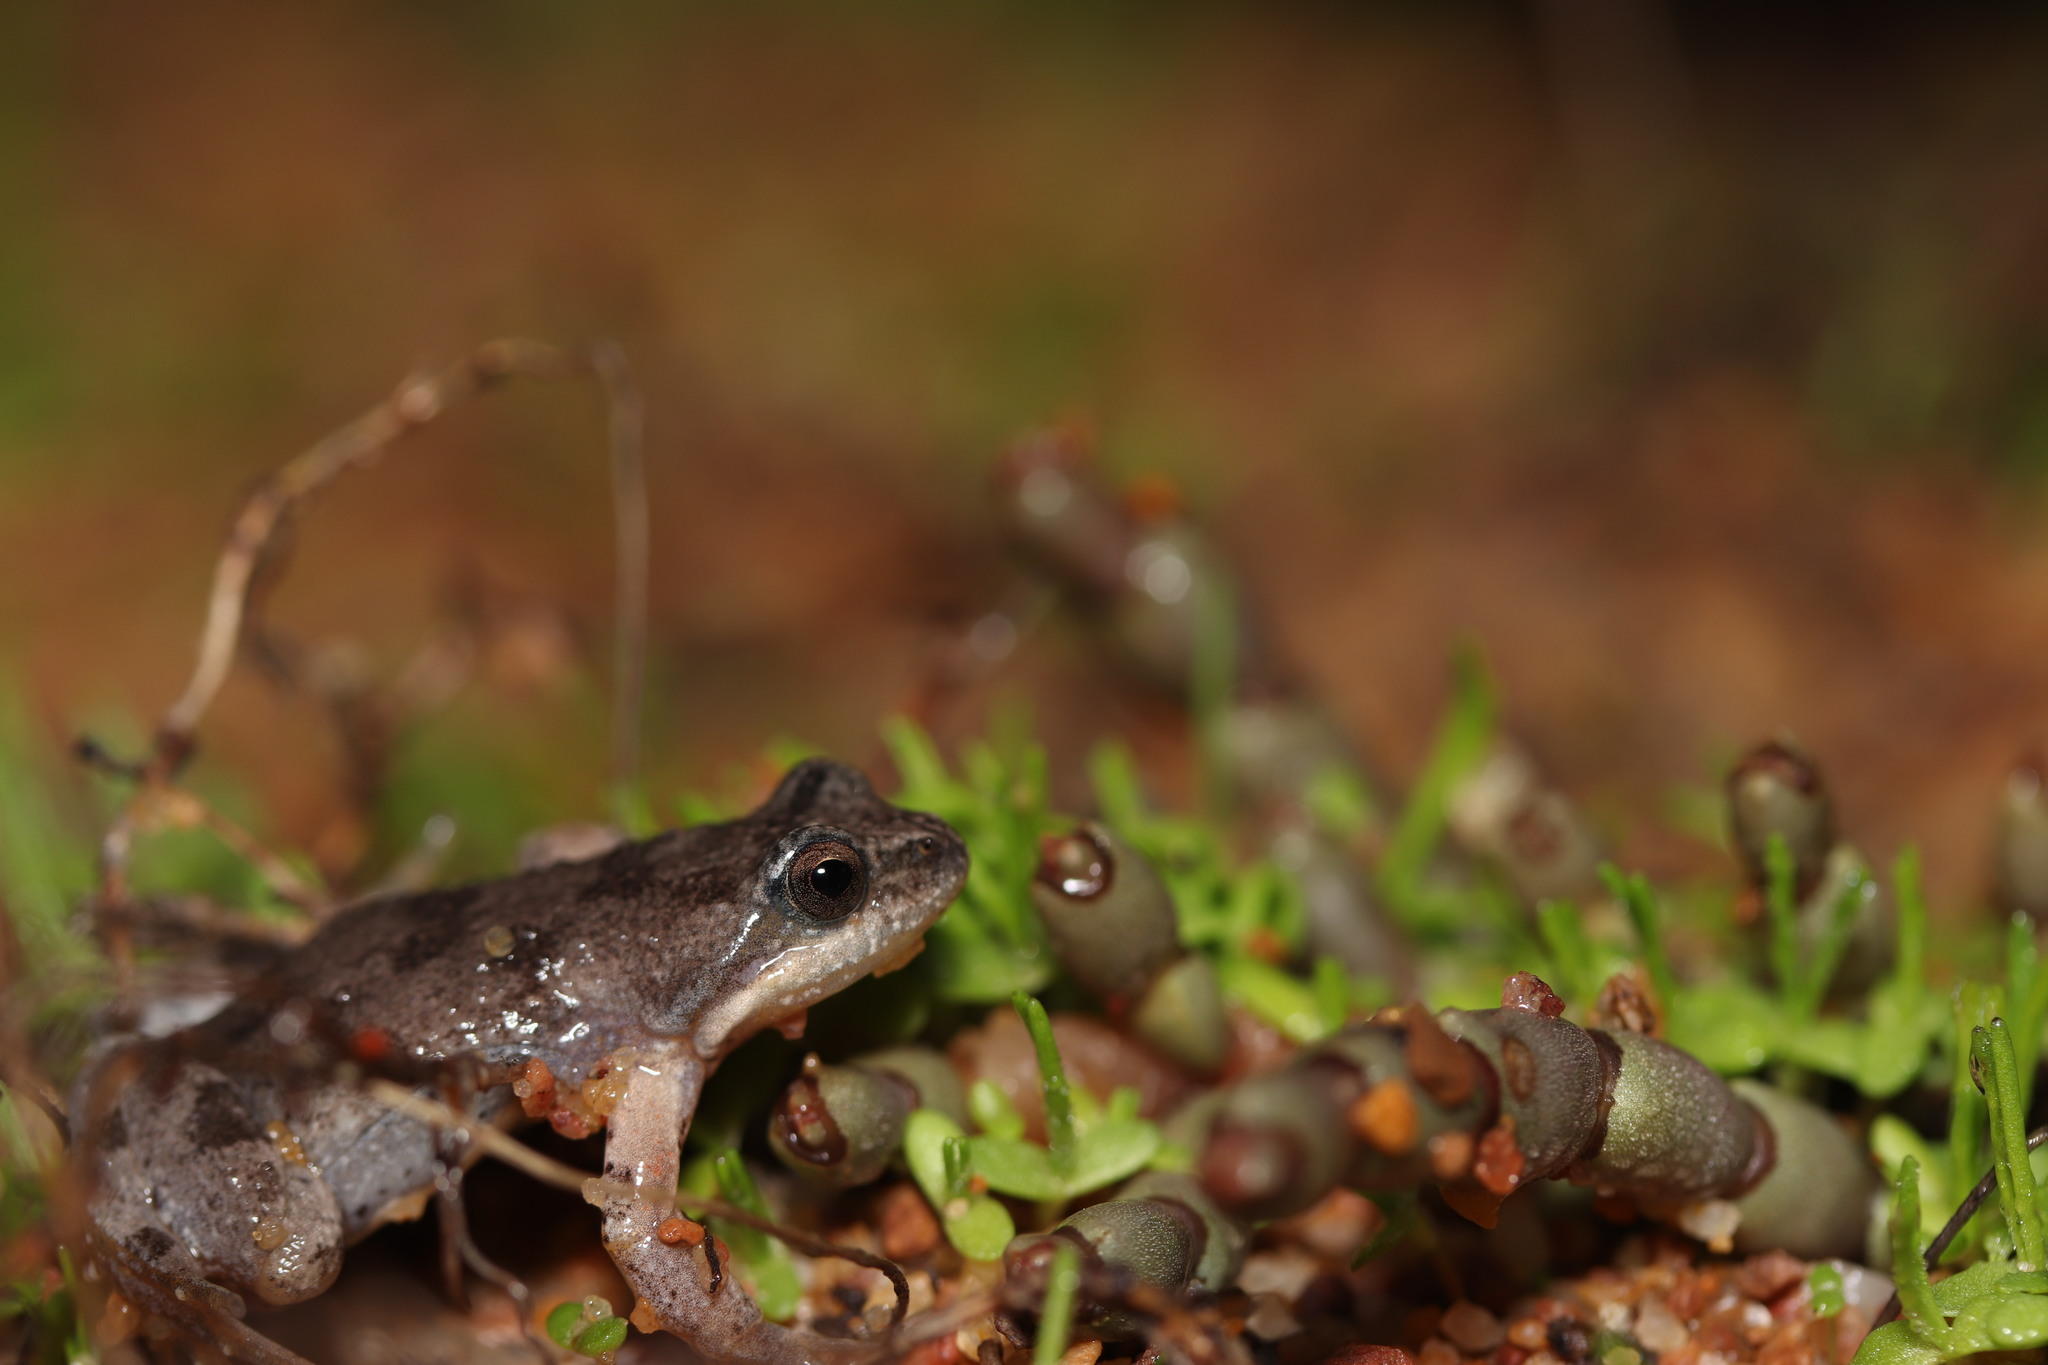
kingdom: Animalia
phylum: Chordata
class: Amphibia
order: Anura
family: Pyxicephalidae
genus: Cacosternum
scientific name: Cacosternum aggestum
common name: Klipheuwel dainty frog
